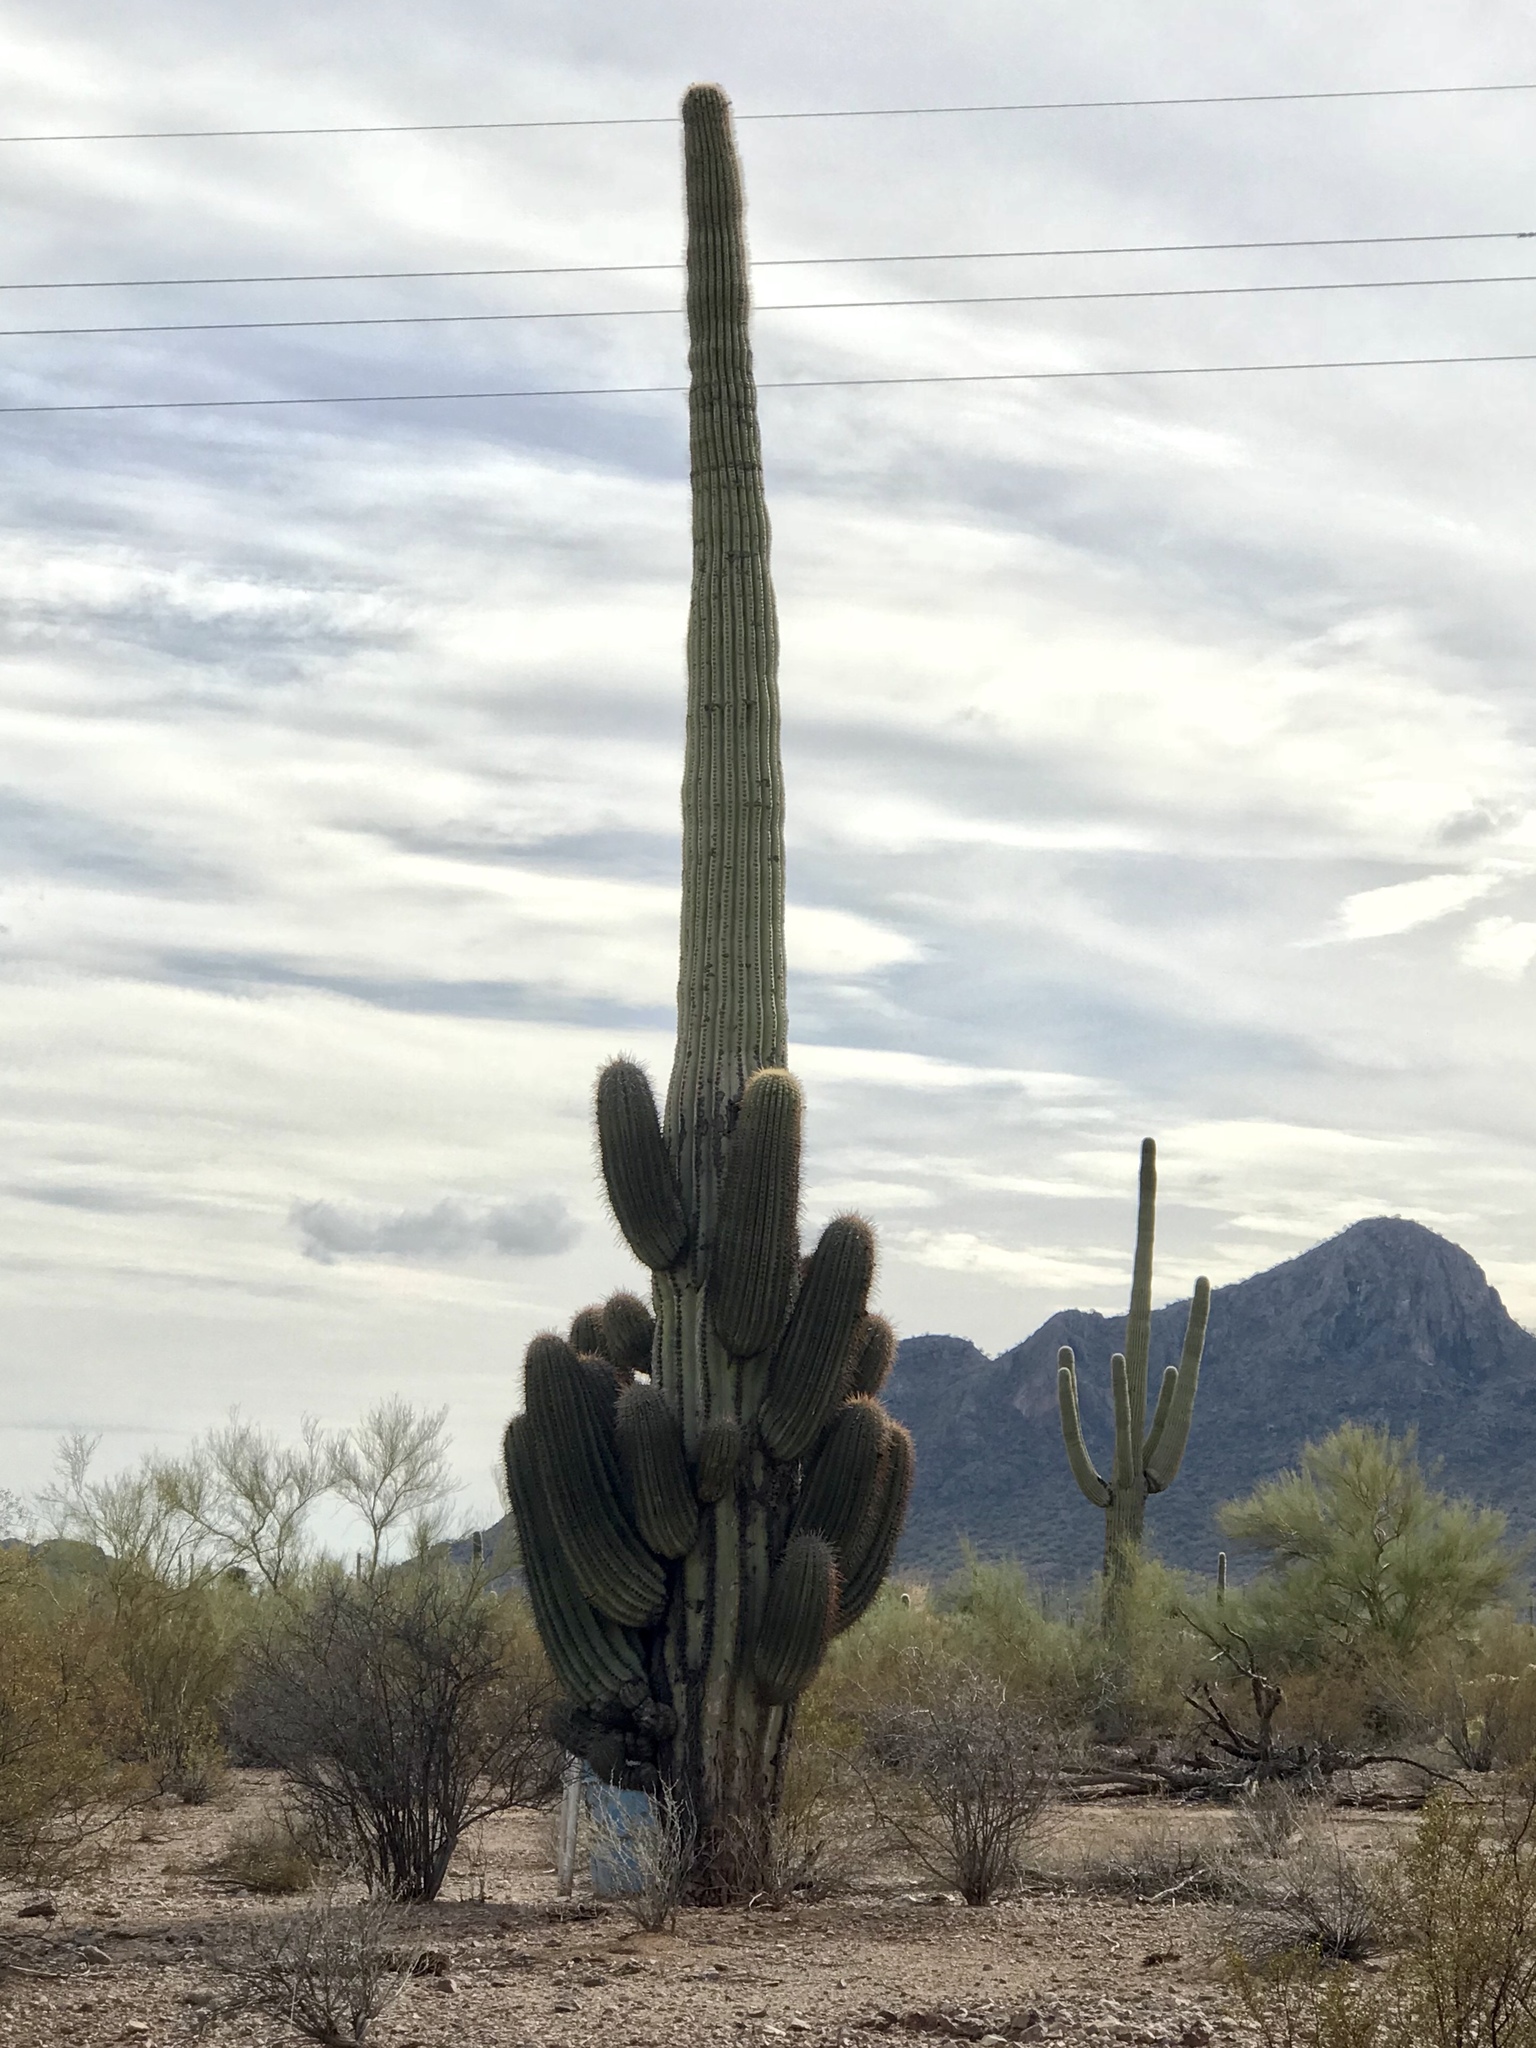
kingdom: Plantae
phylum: Tracheophyta
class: Magnoliopsida
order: Caryophyllales
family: Cactaceae
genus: Carnegiea
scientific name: Carnegiea gigantea
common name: Saguaro
